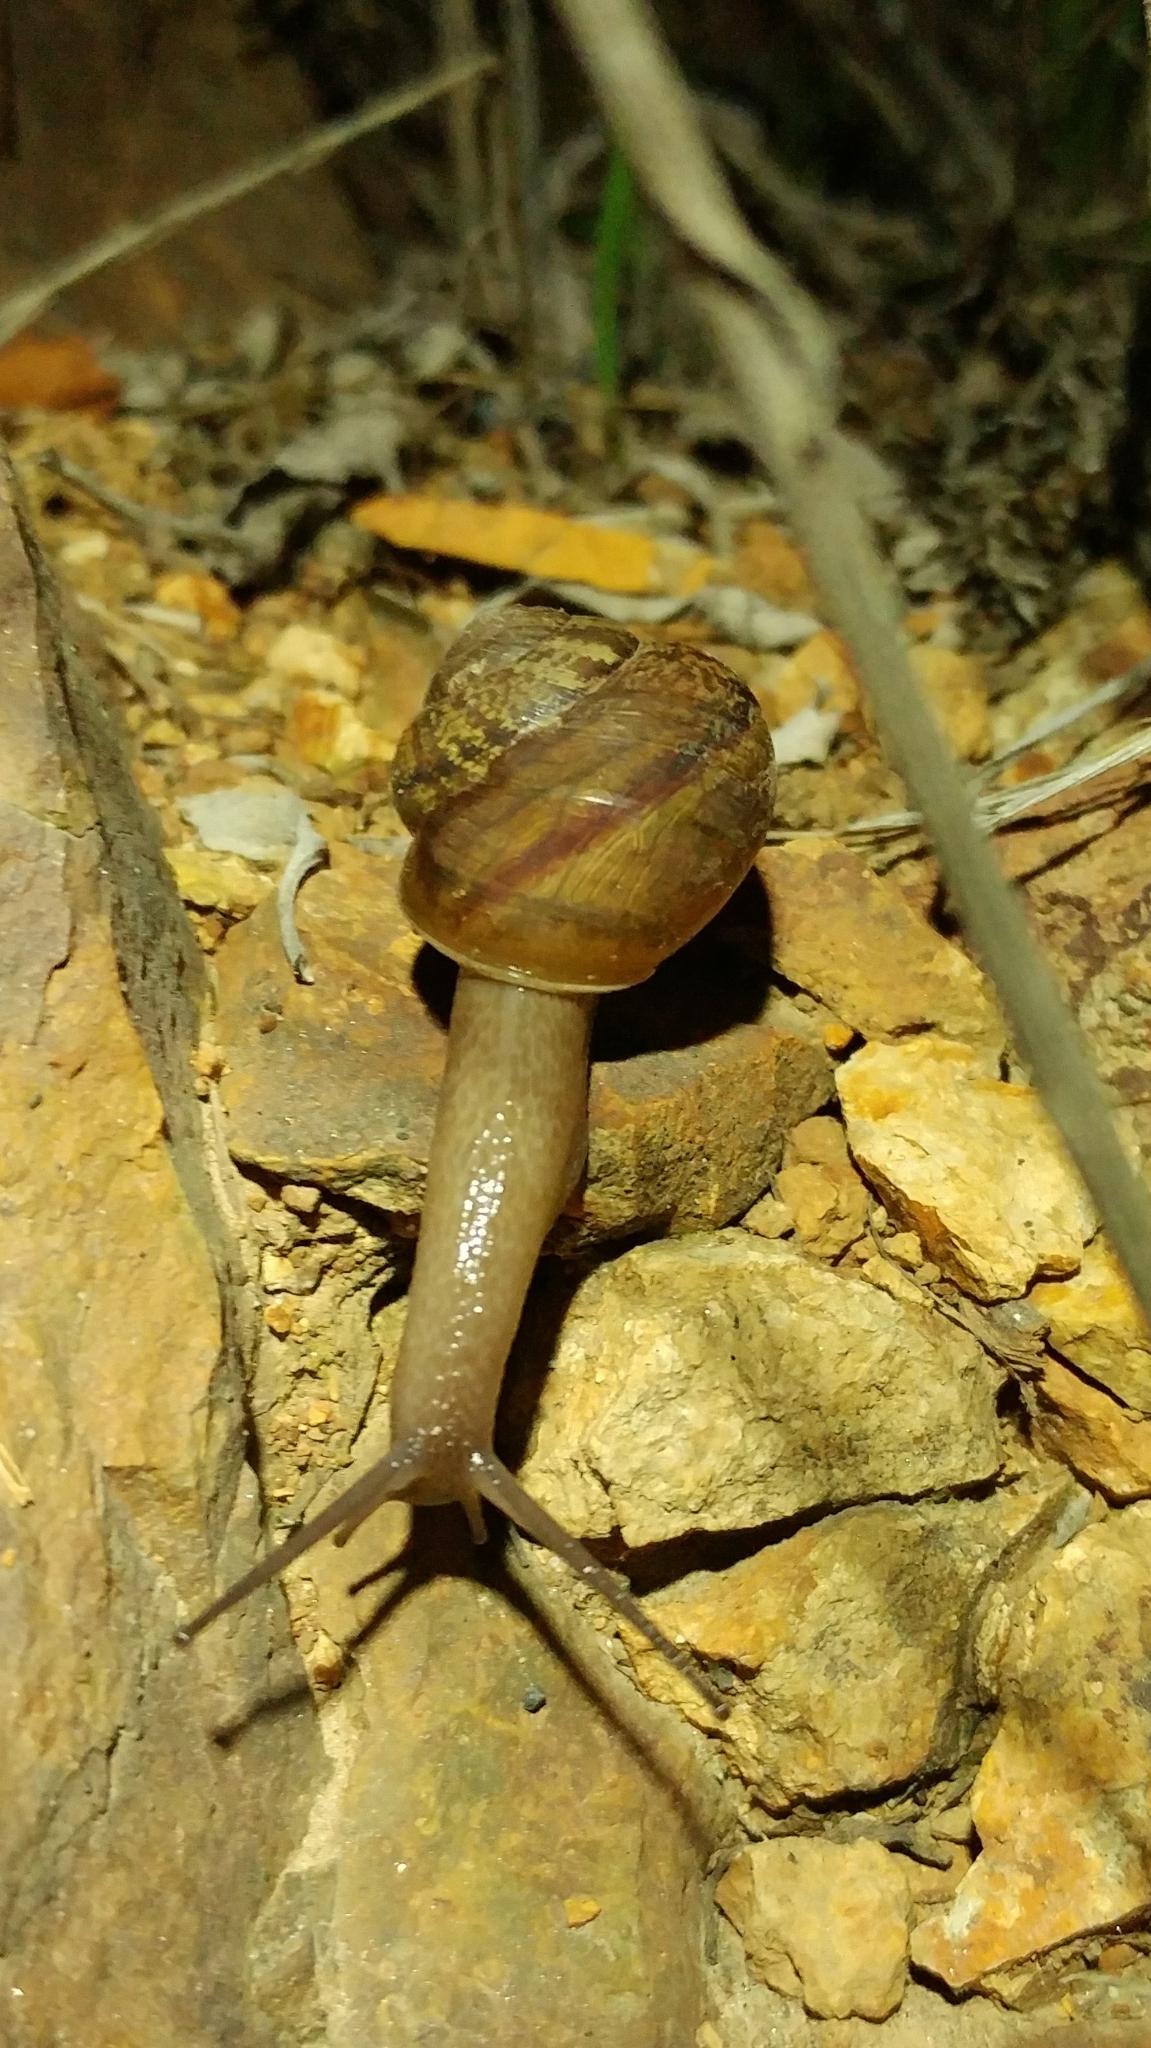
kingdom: Animalia
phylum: Mollusca
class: Gastropoda
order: Stylommatophora
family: Xanthonychidae
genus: Xerarionta
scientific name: Xerarionta stearnsiana
